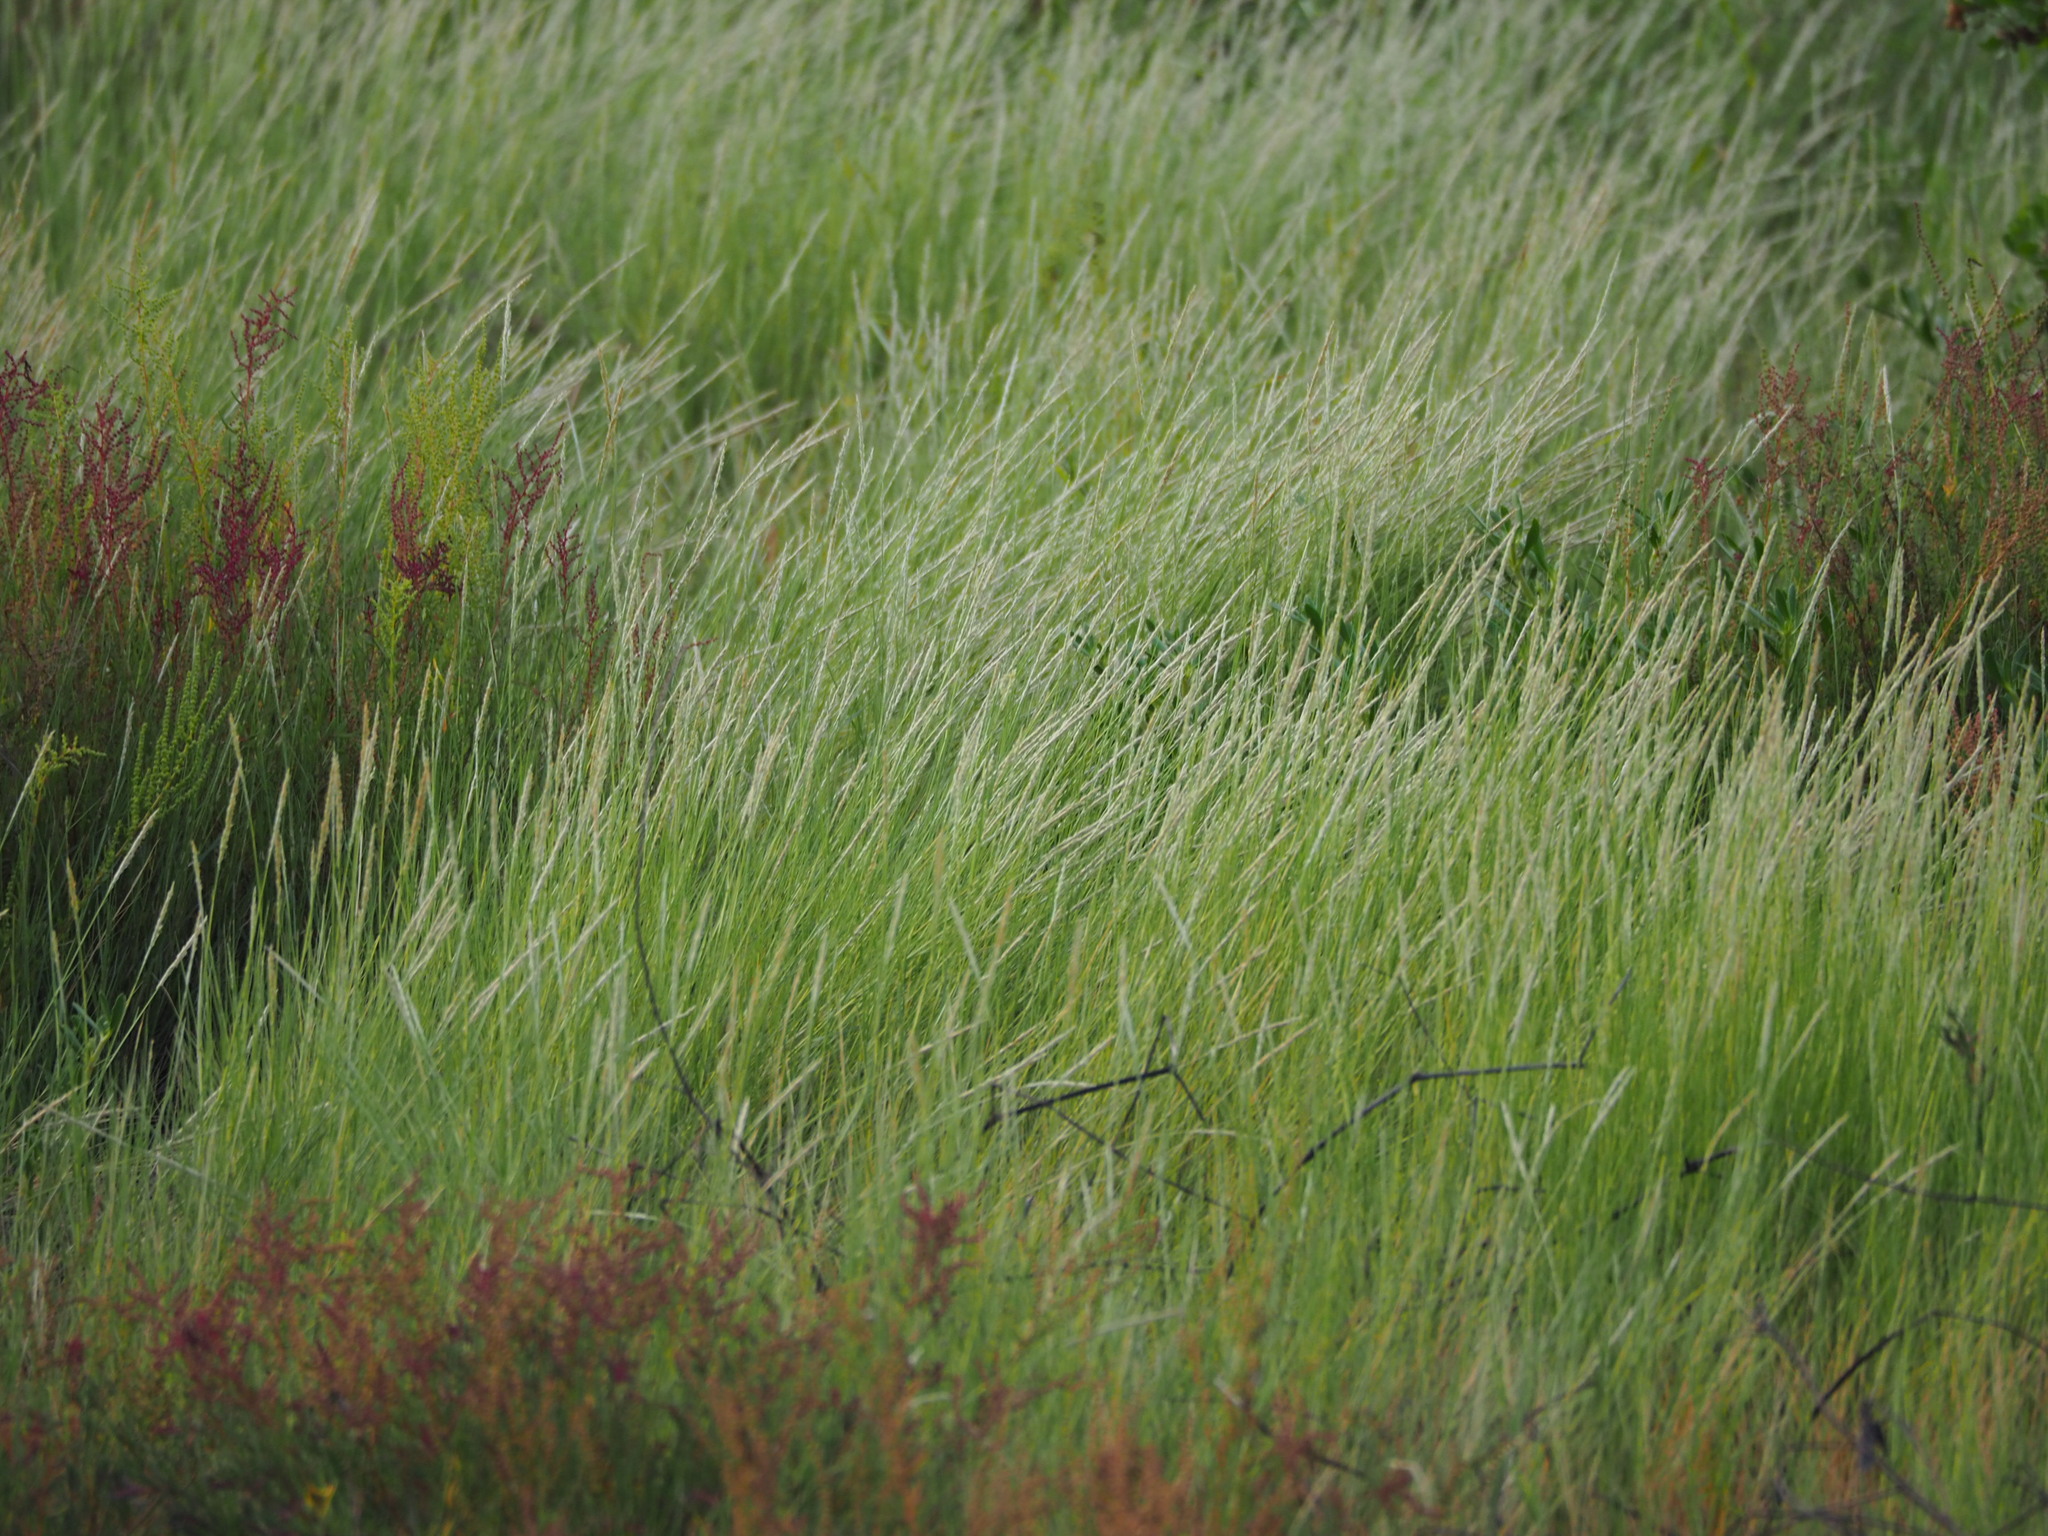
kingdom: Plantae
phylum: Tracheophyta
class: Liliopsida
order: Poales
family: Poaceae
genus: Sporobolus
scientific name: Sporobolus virginicus
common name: Beach dropseed
